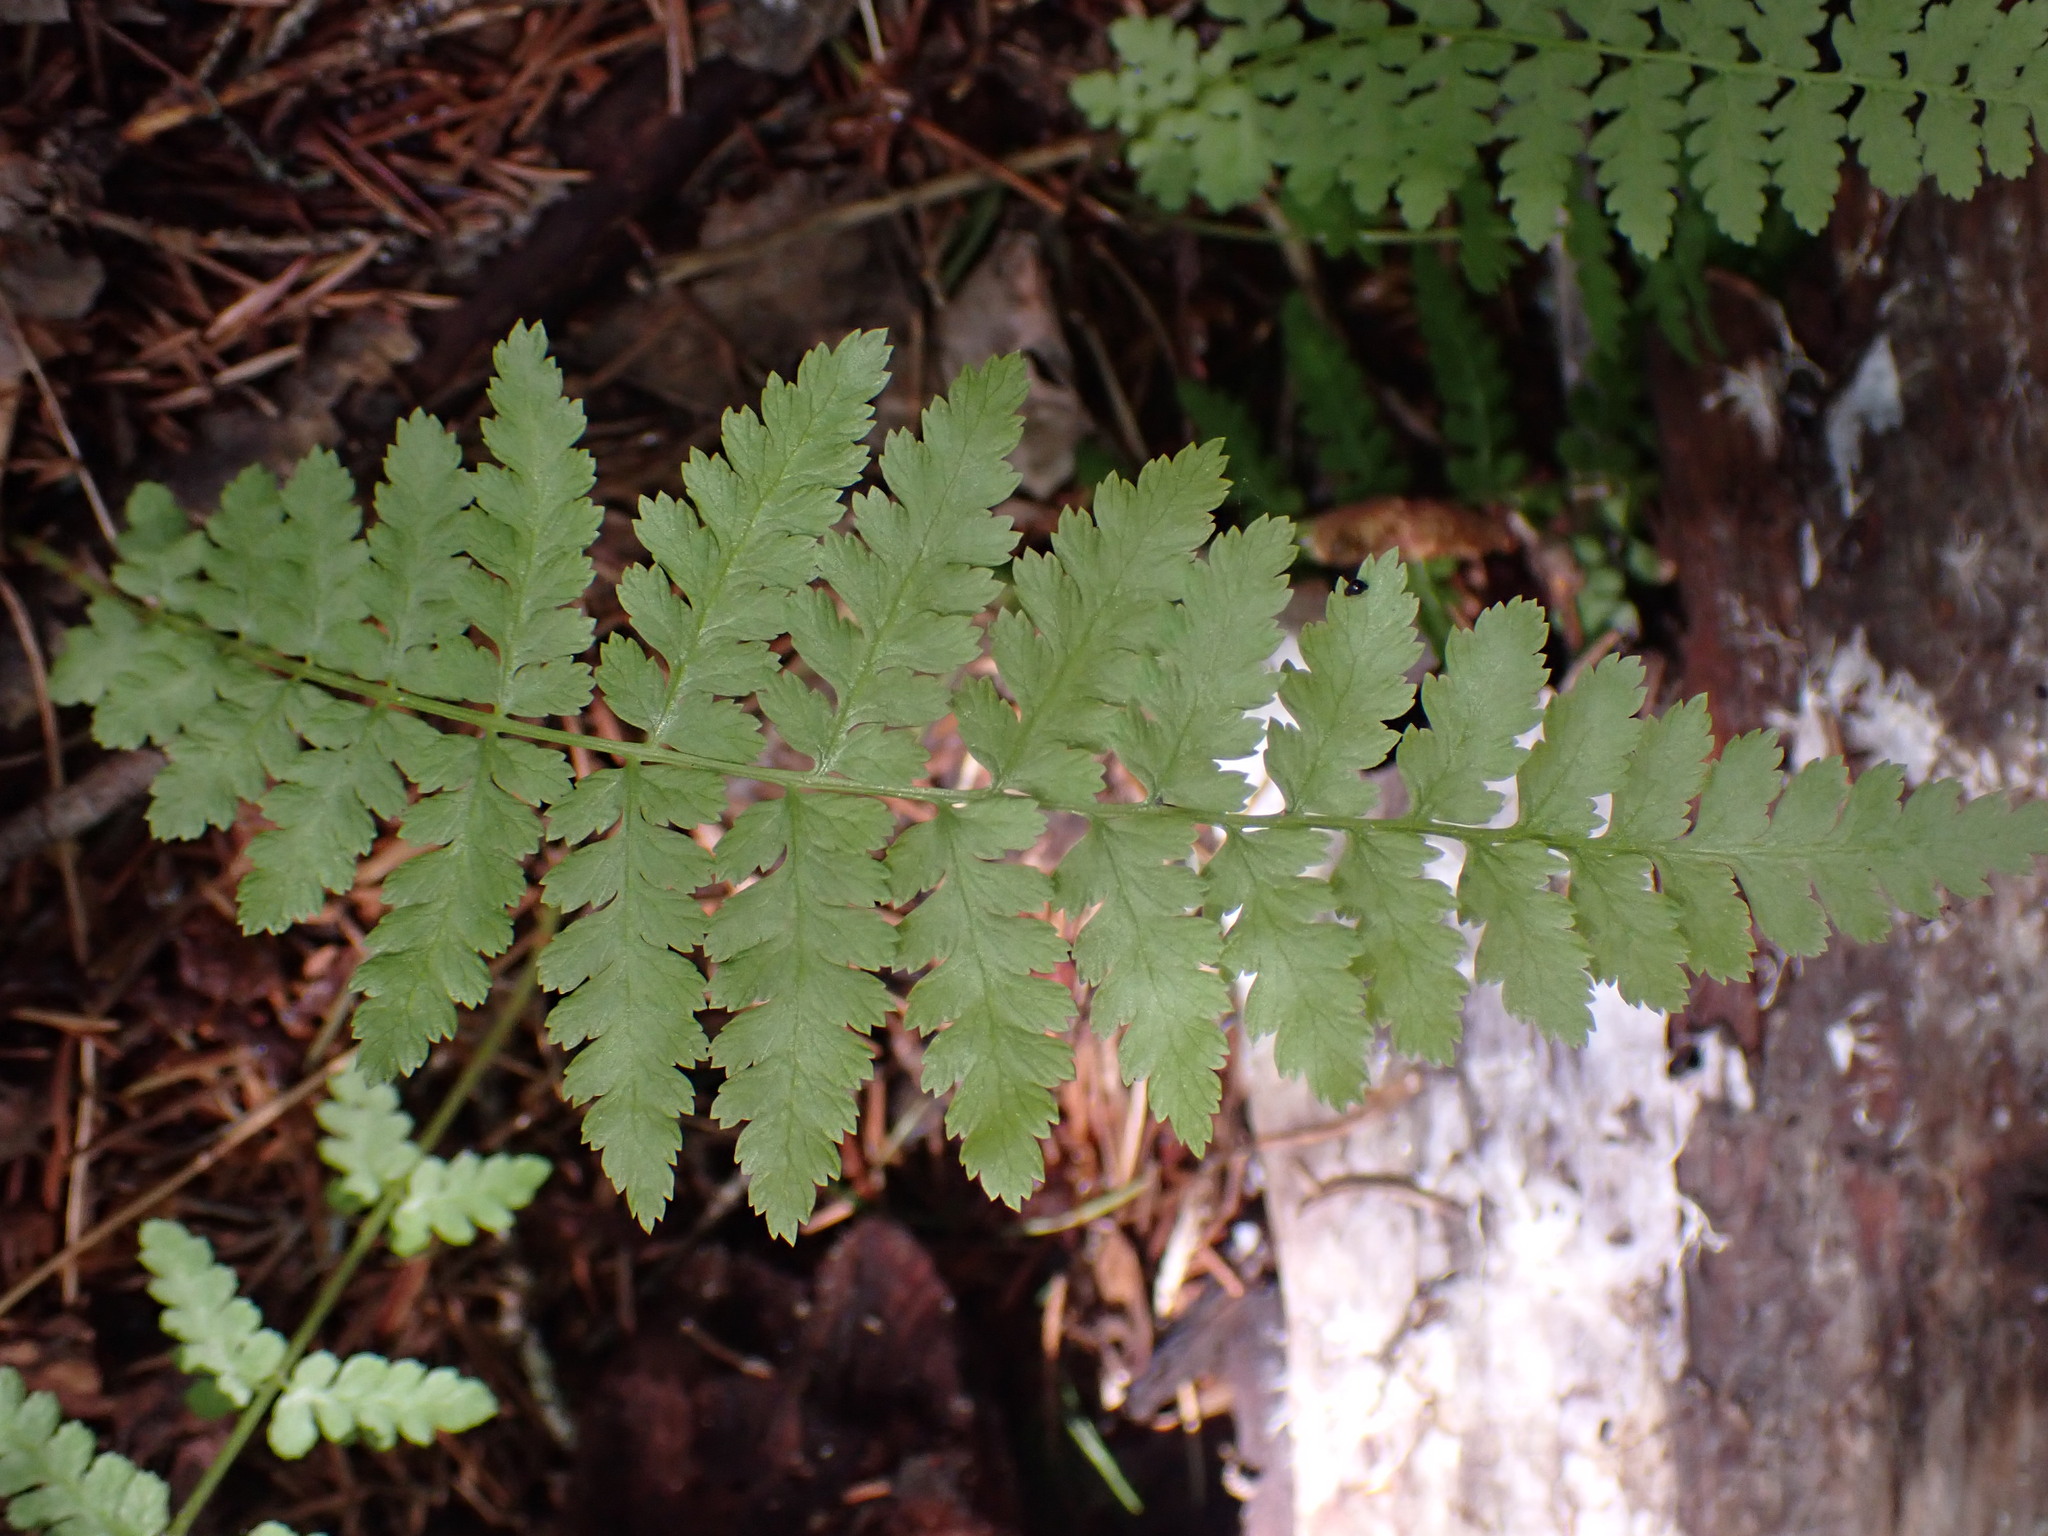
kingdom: Plantae
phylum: Tracheophyta
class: Polypodiopsida
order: Polypodiales
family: Athyriaceae
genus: Athyrium
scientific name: Athyrium filix-femina
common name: Lady fern
